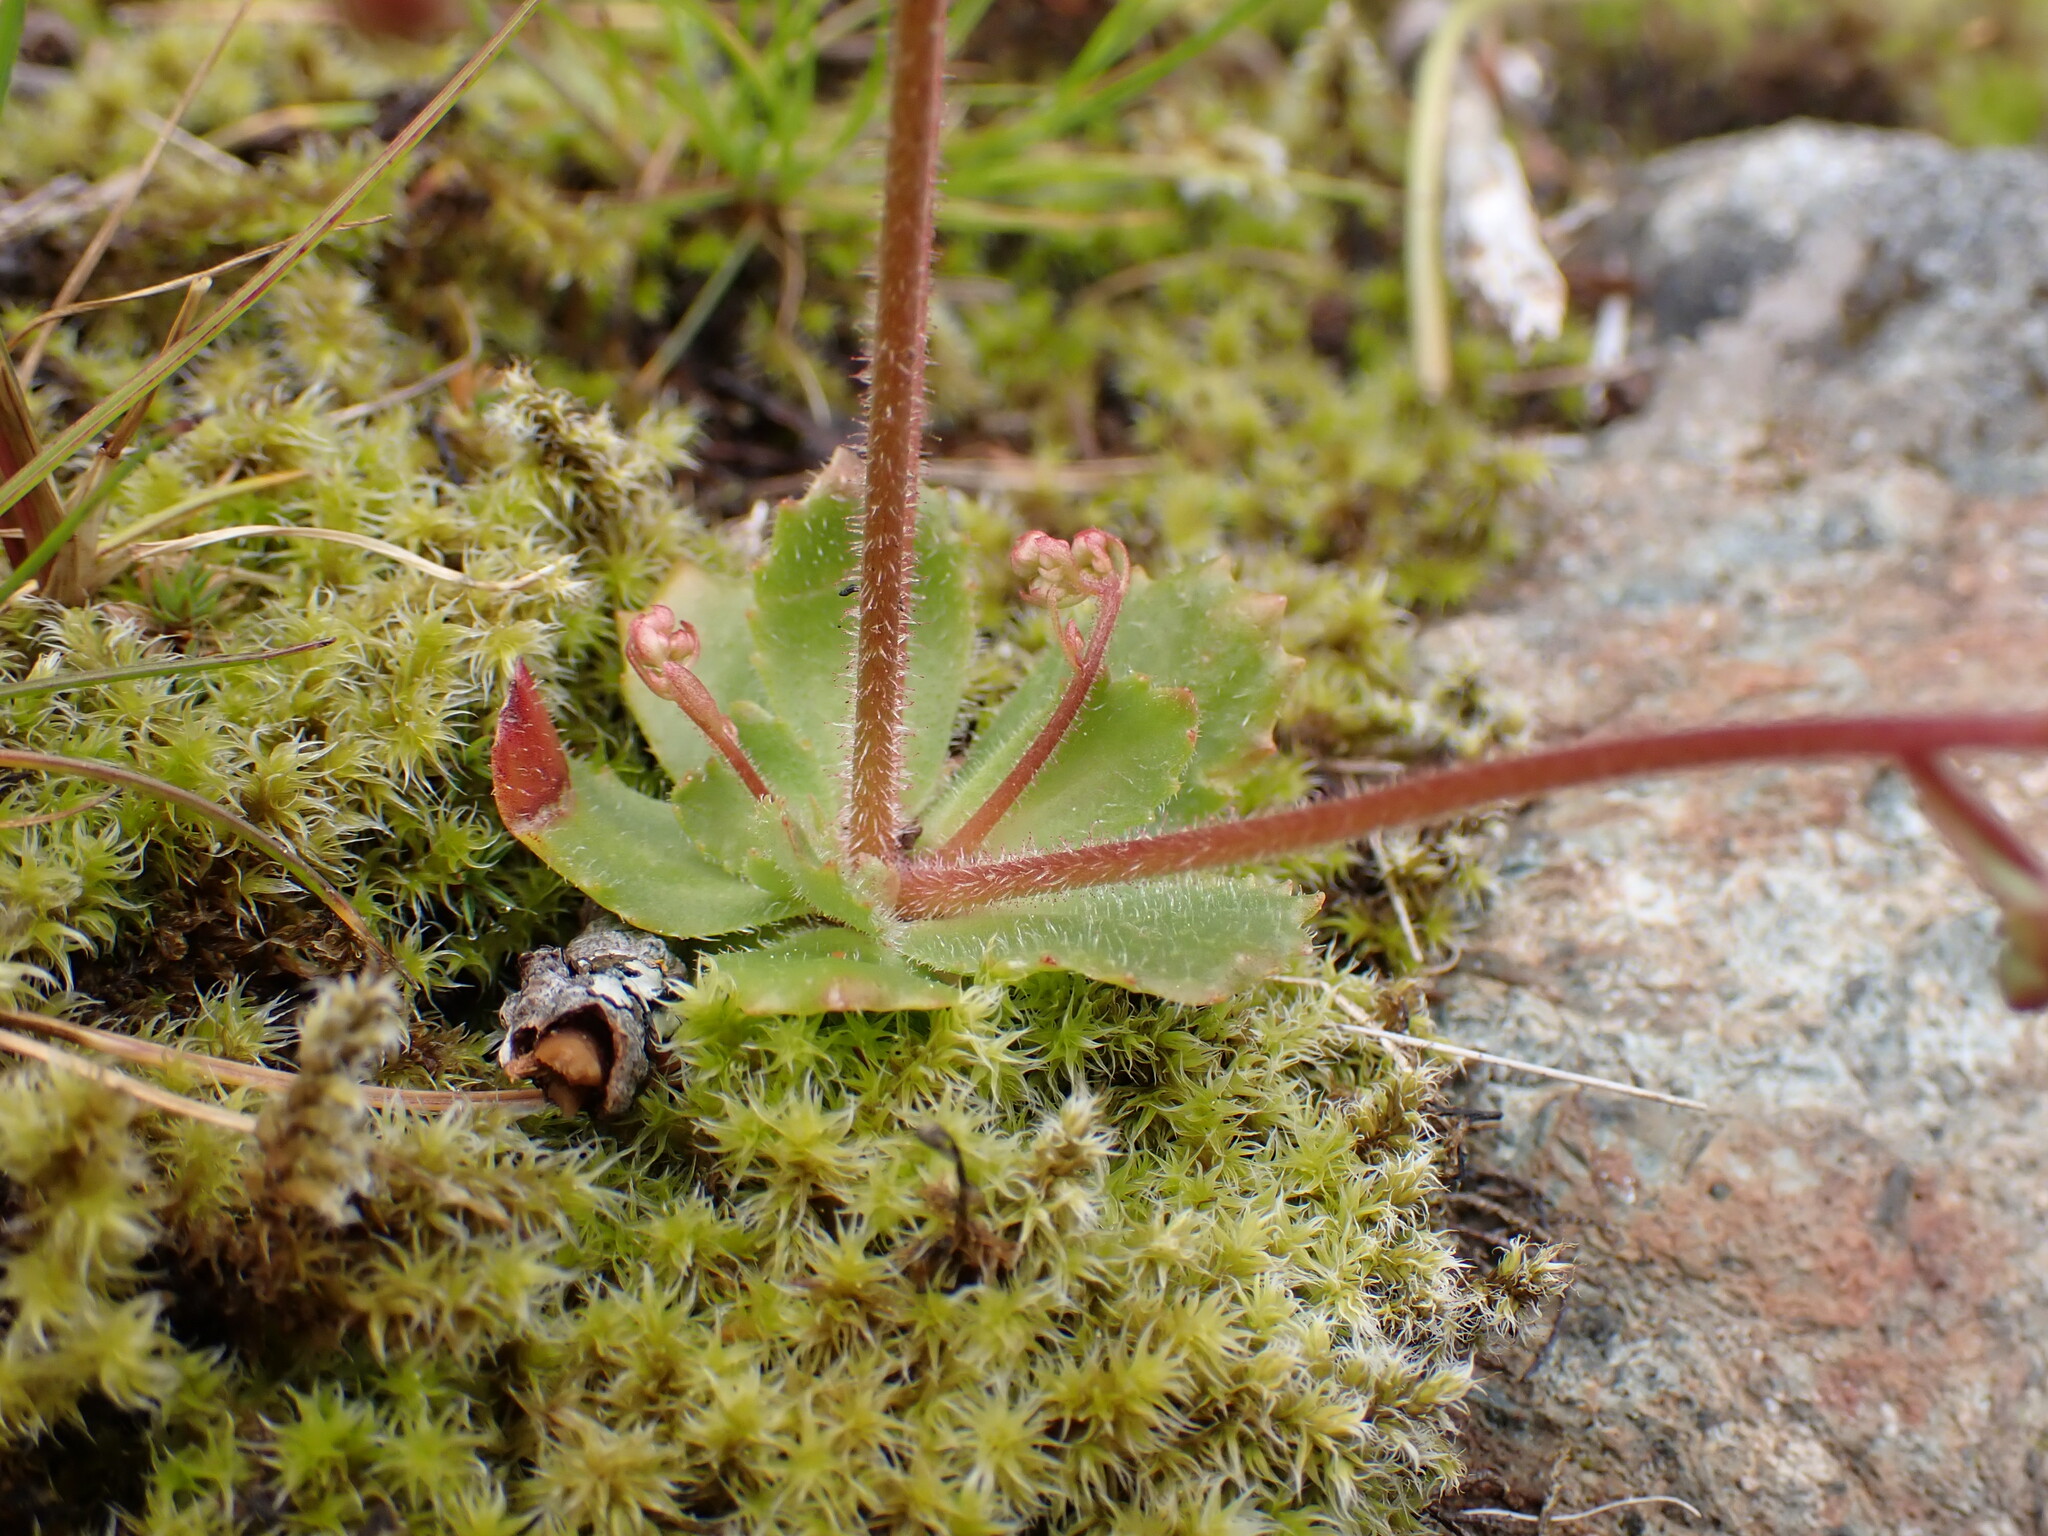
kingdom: Plantae
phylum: Tracheophyta
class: Magnoliopsida
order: Saxifragales
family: Saxifragaceae
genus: Micranthes
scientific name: Micranthes ferruginea
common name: Rusty saxifrage
